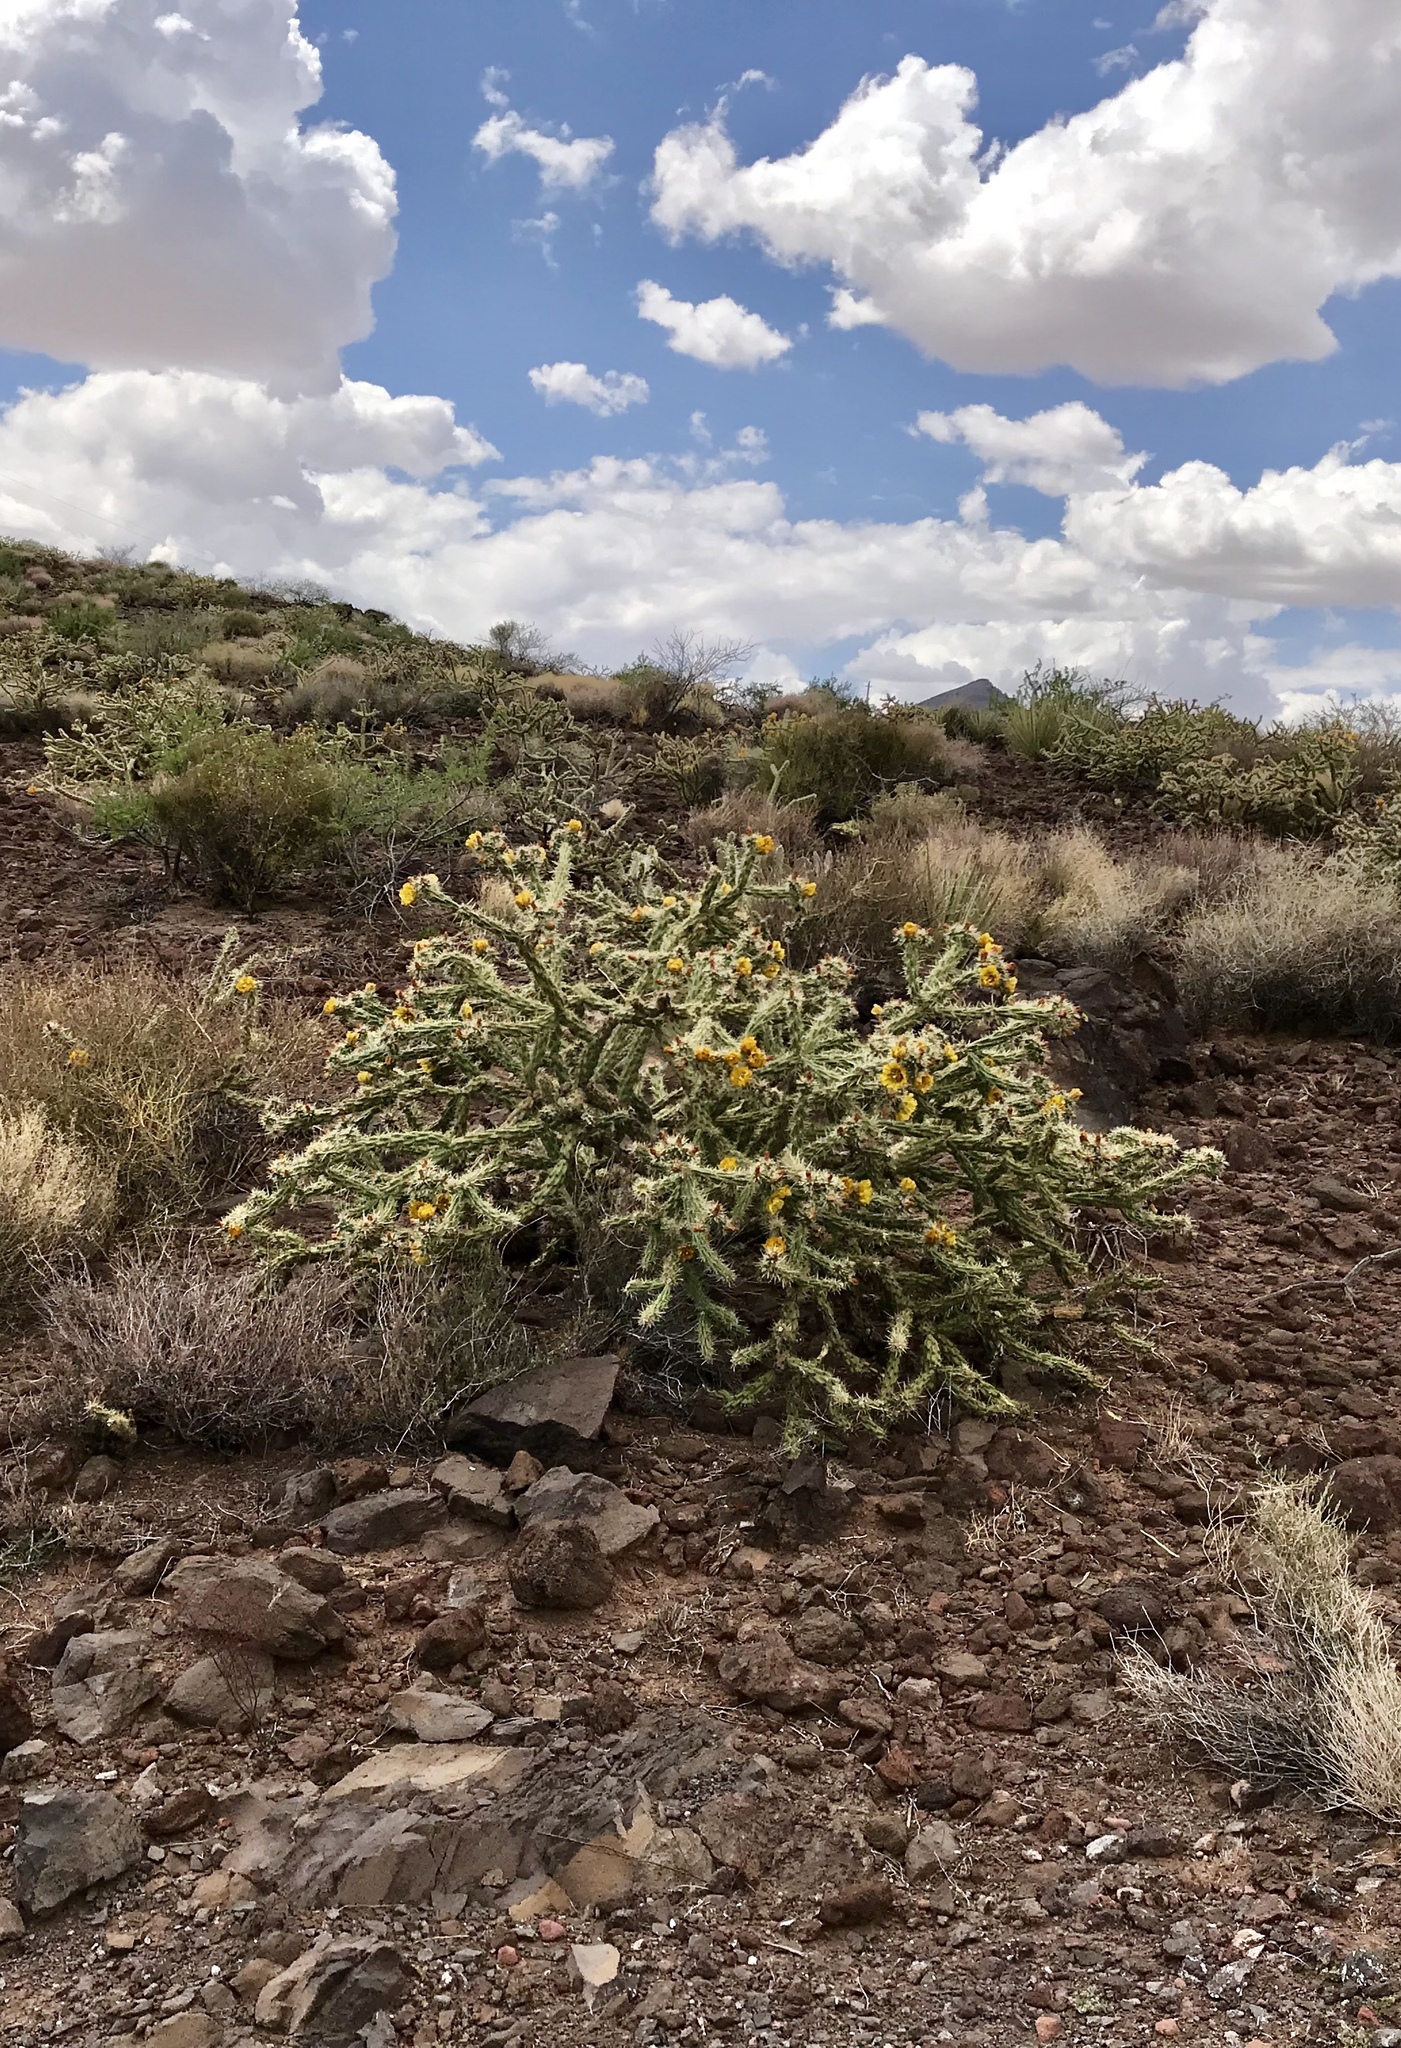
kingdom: Plantae
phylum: Tracheophyta
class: Magnoliopsida
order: Caryophyllales
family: Cactaceae
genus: Cylindropuntia
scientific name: Cylindropuntia acanthocarpa
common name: Buckhorn cholla
